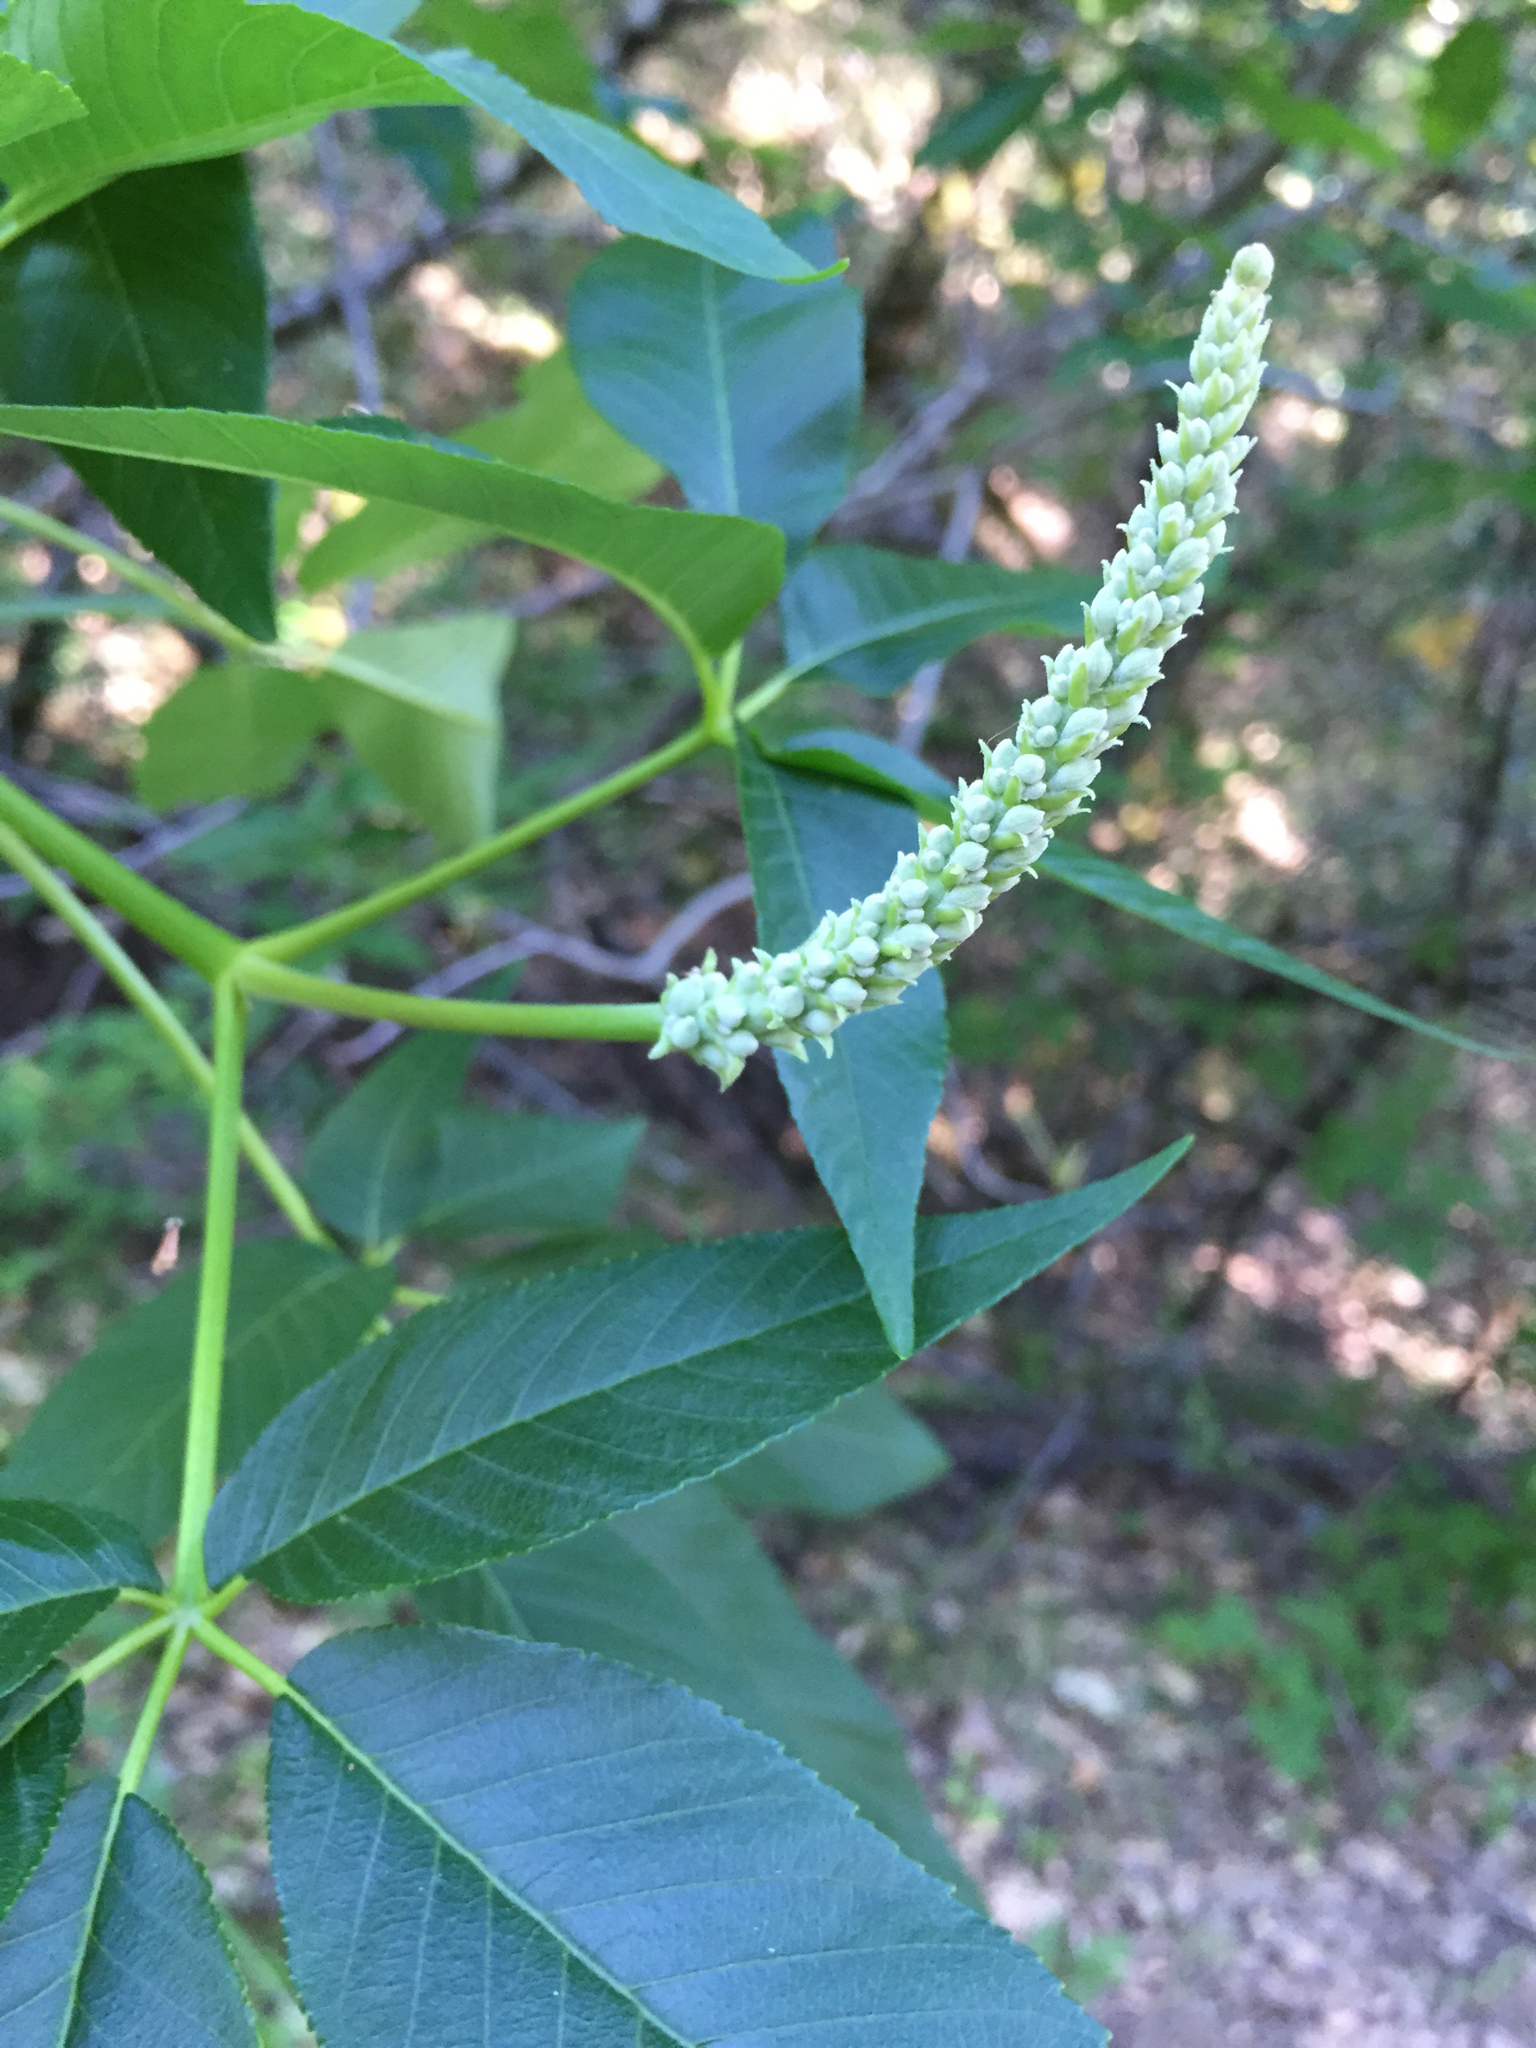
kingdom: Plantae
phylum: Tracheophyta
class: Magnoliopsida
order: Sapindales
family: Sapindaceae
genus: Aesculus
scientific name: Aesculus californica
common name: California buckeye
